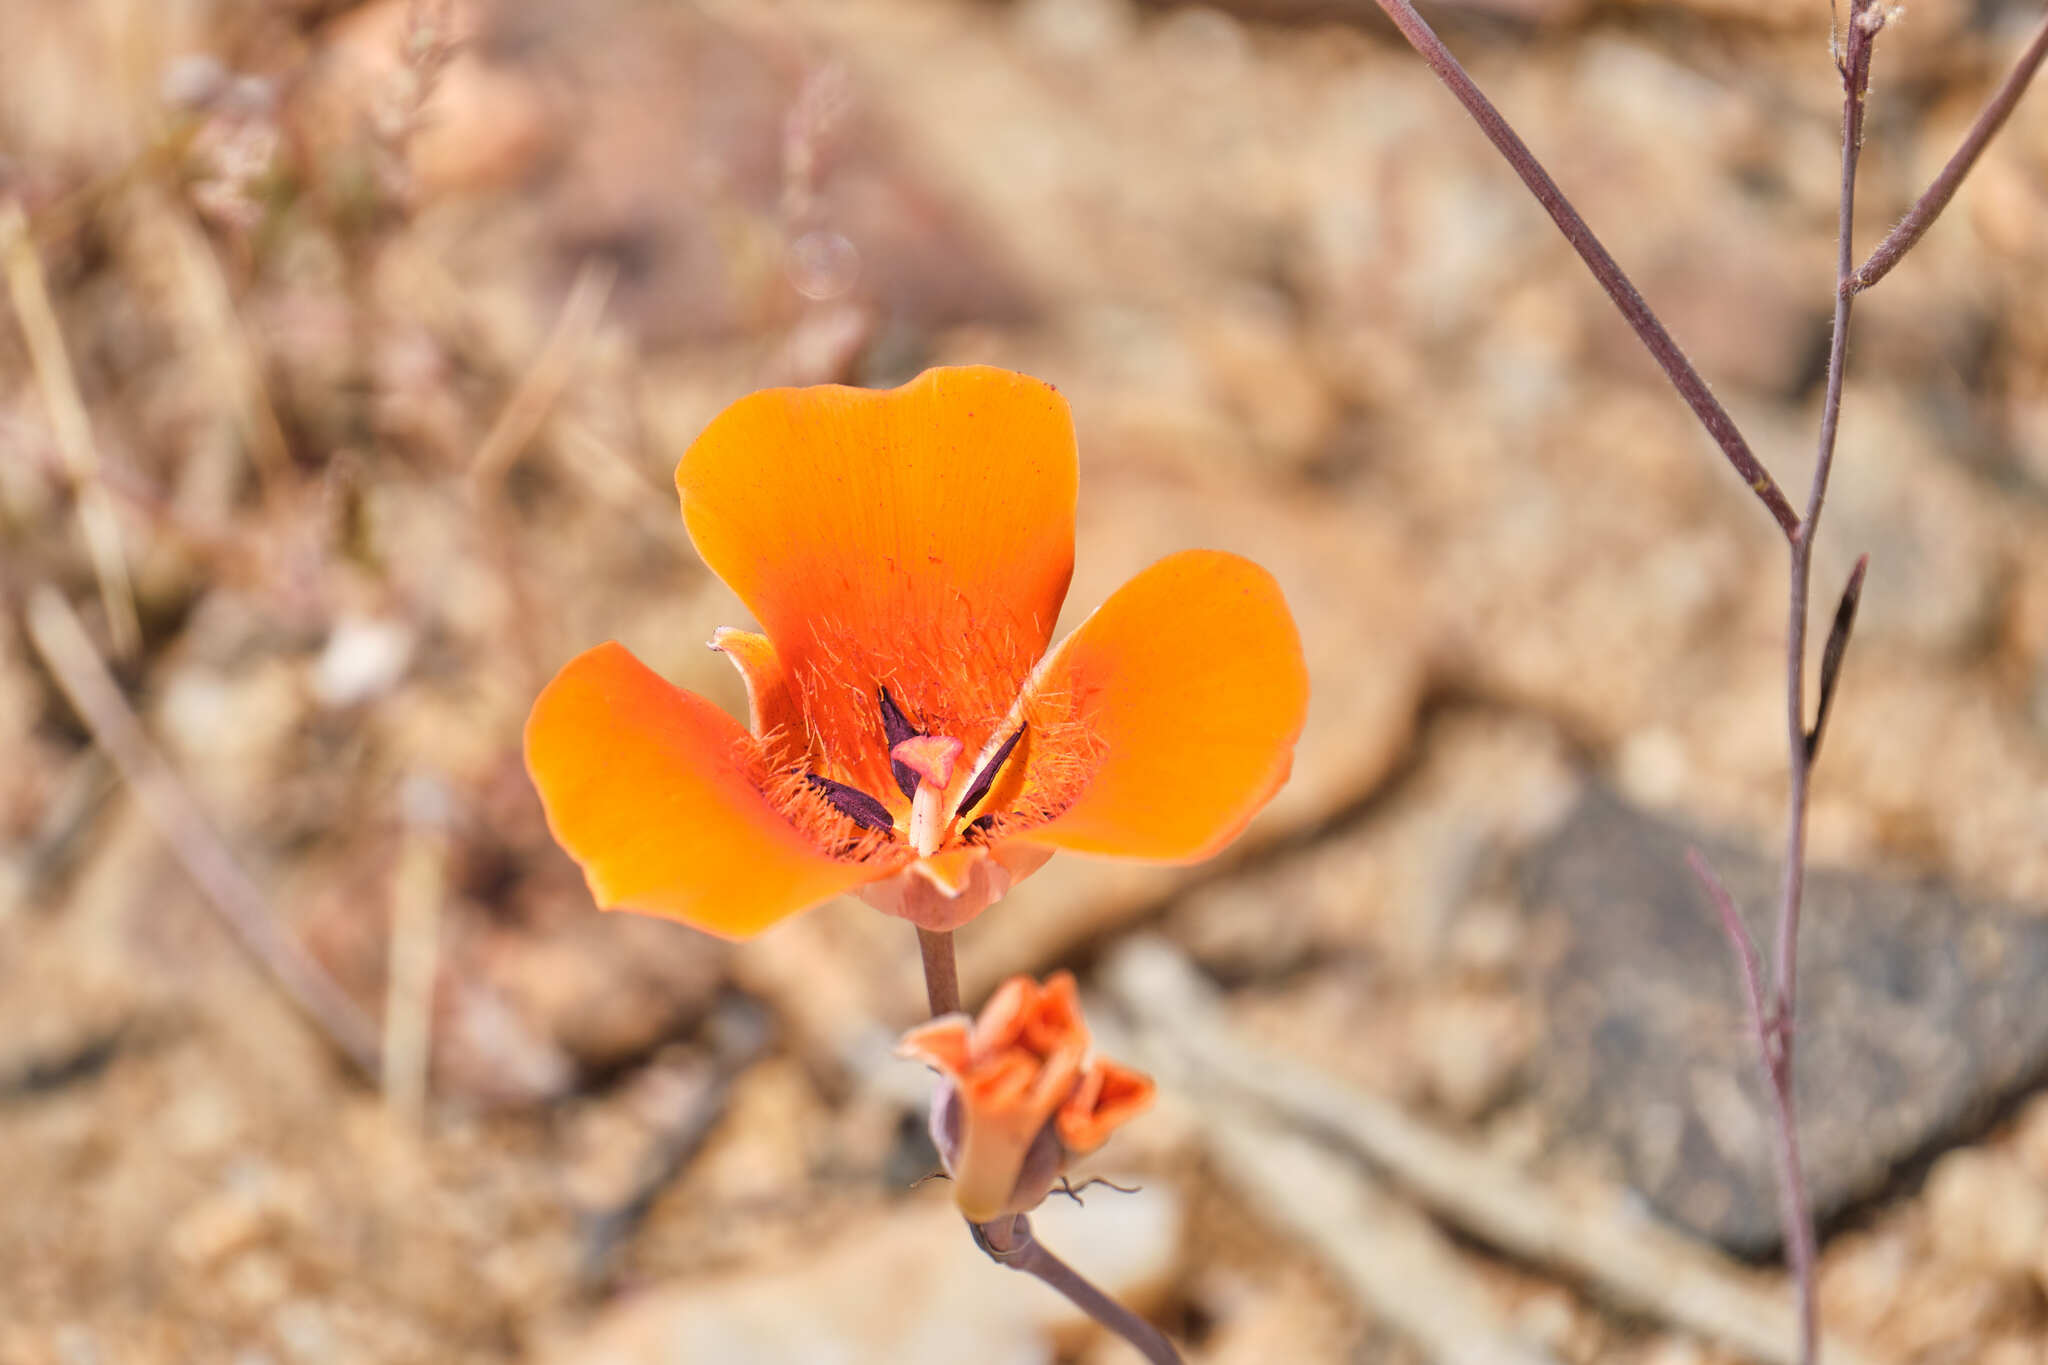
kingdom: Plantae
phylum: Tracheophyta
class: Liliopsida
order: Liliales
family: Liliaceae
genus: Calochortus
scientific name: Calochortus kennedyi
